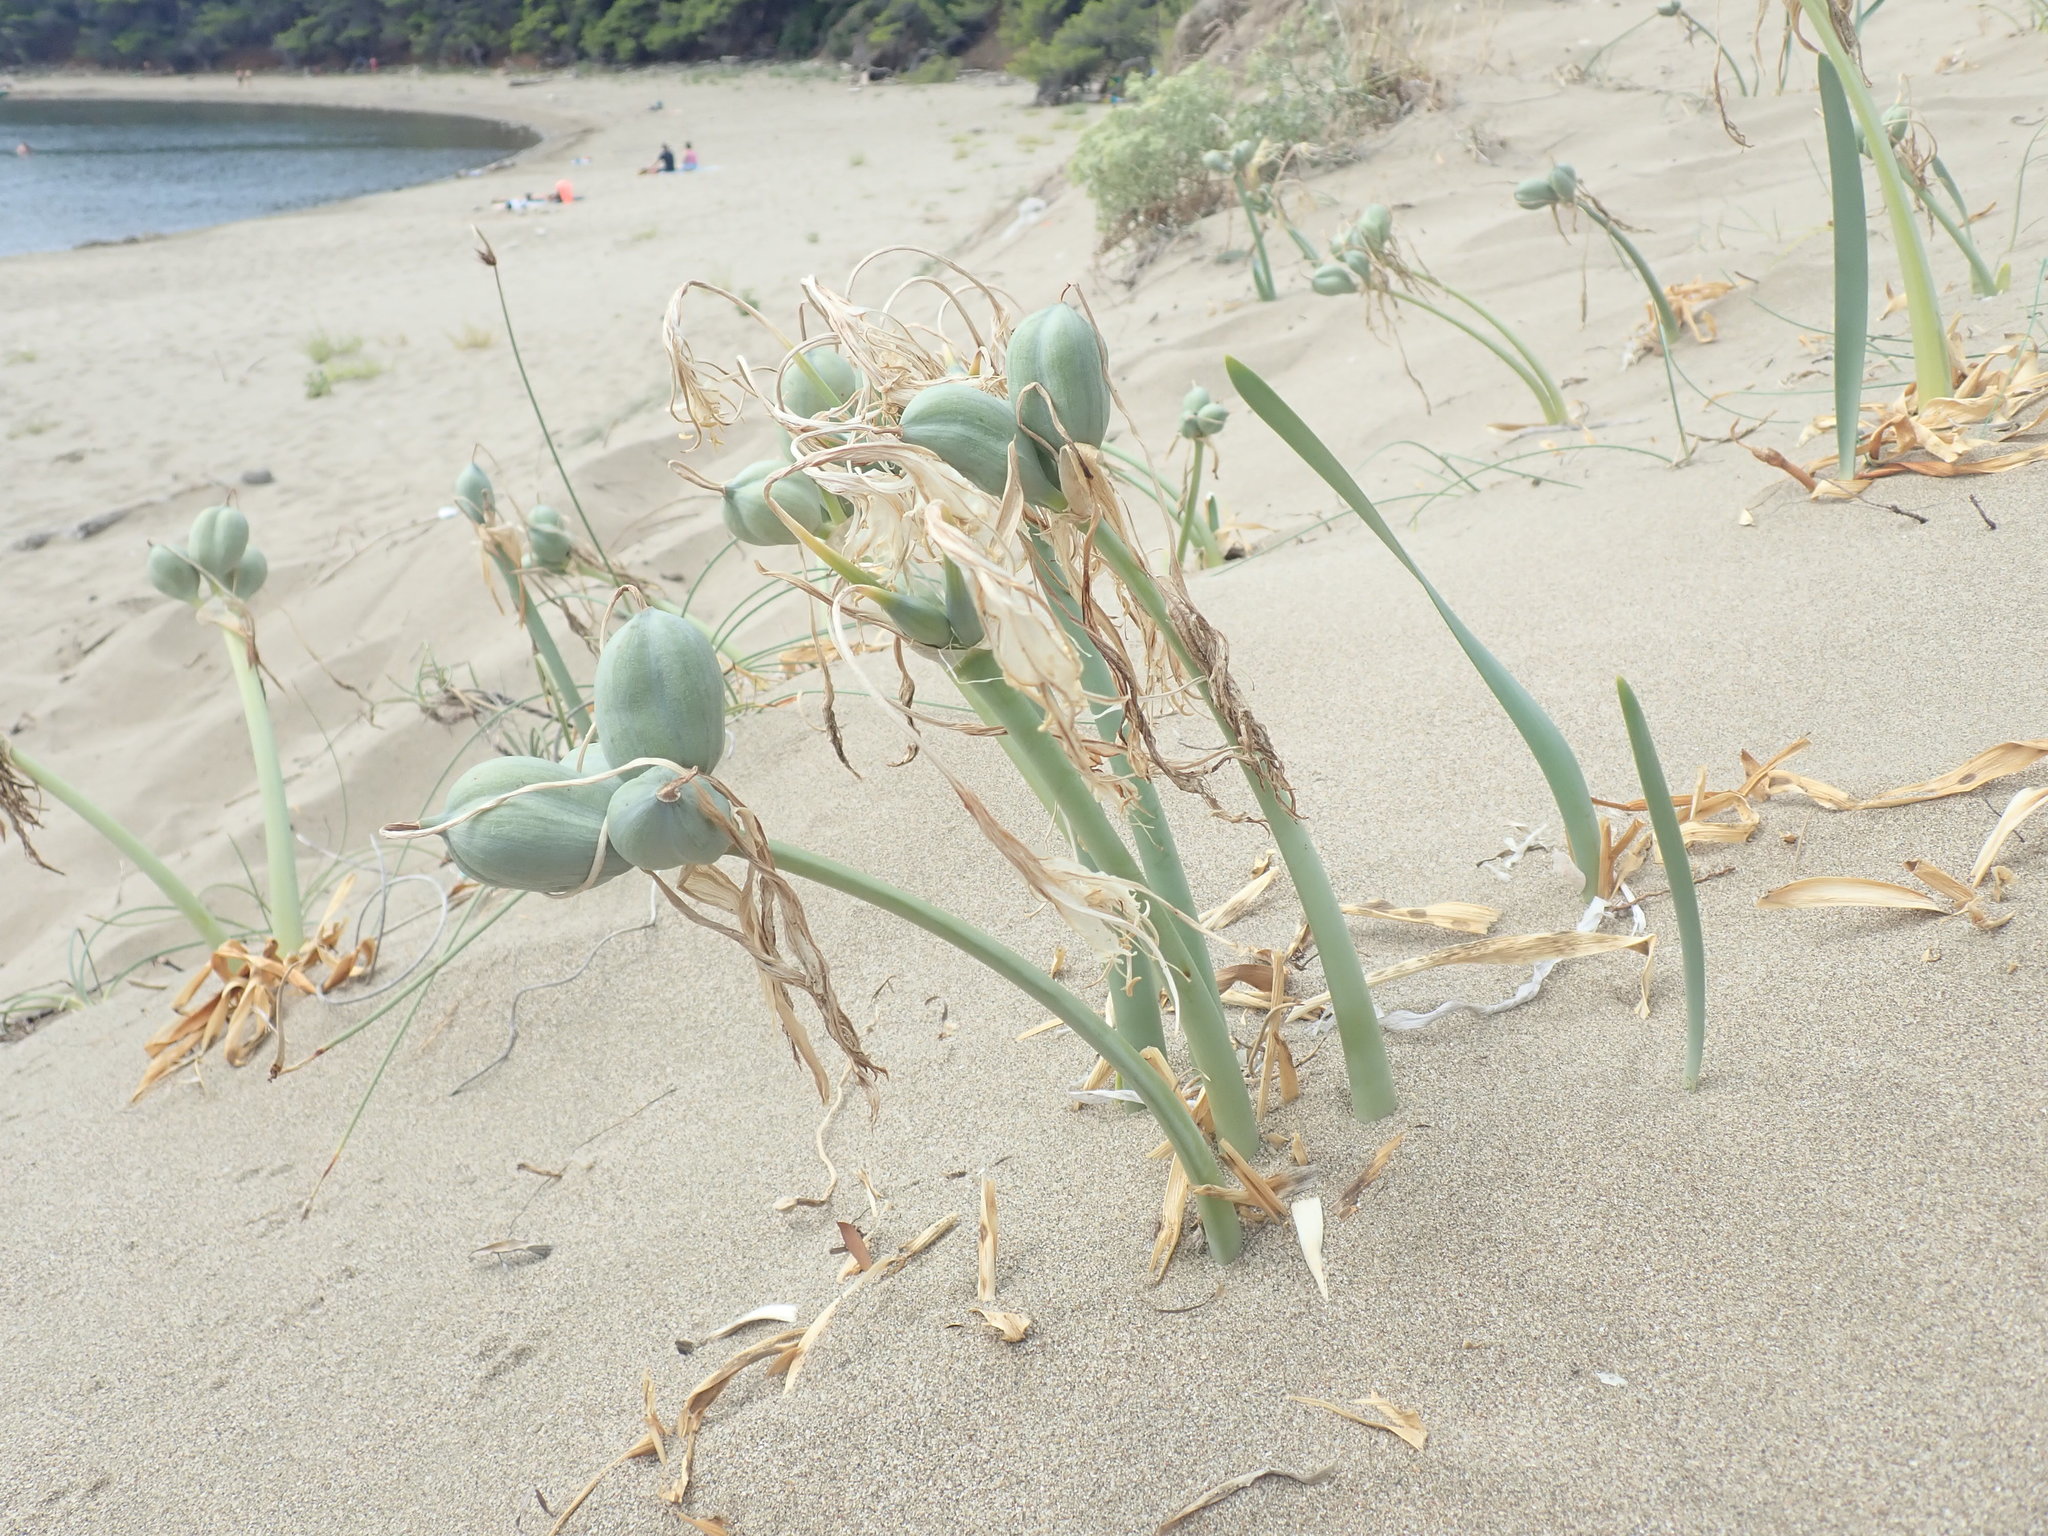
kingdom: Plantae
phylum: Tracheophyta
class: Liliopsida
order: Asparagales
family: Amaryllidaceae
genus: Pancratium
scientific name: Pancratium maritimum
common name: Sea-daffodil
